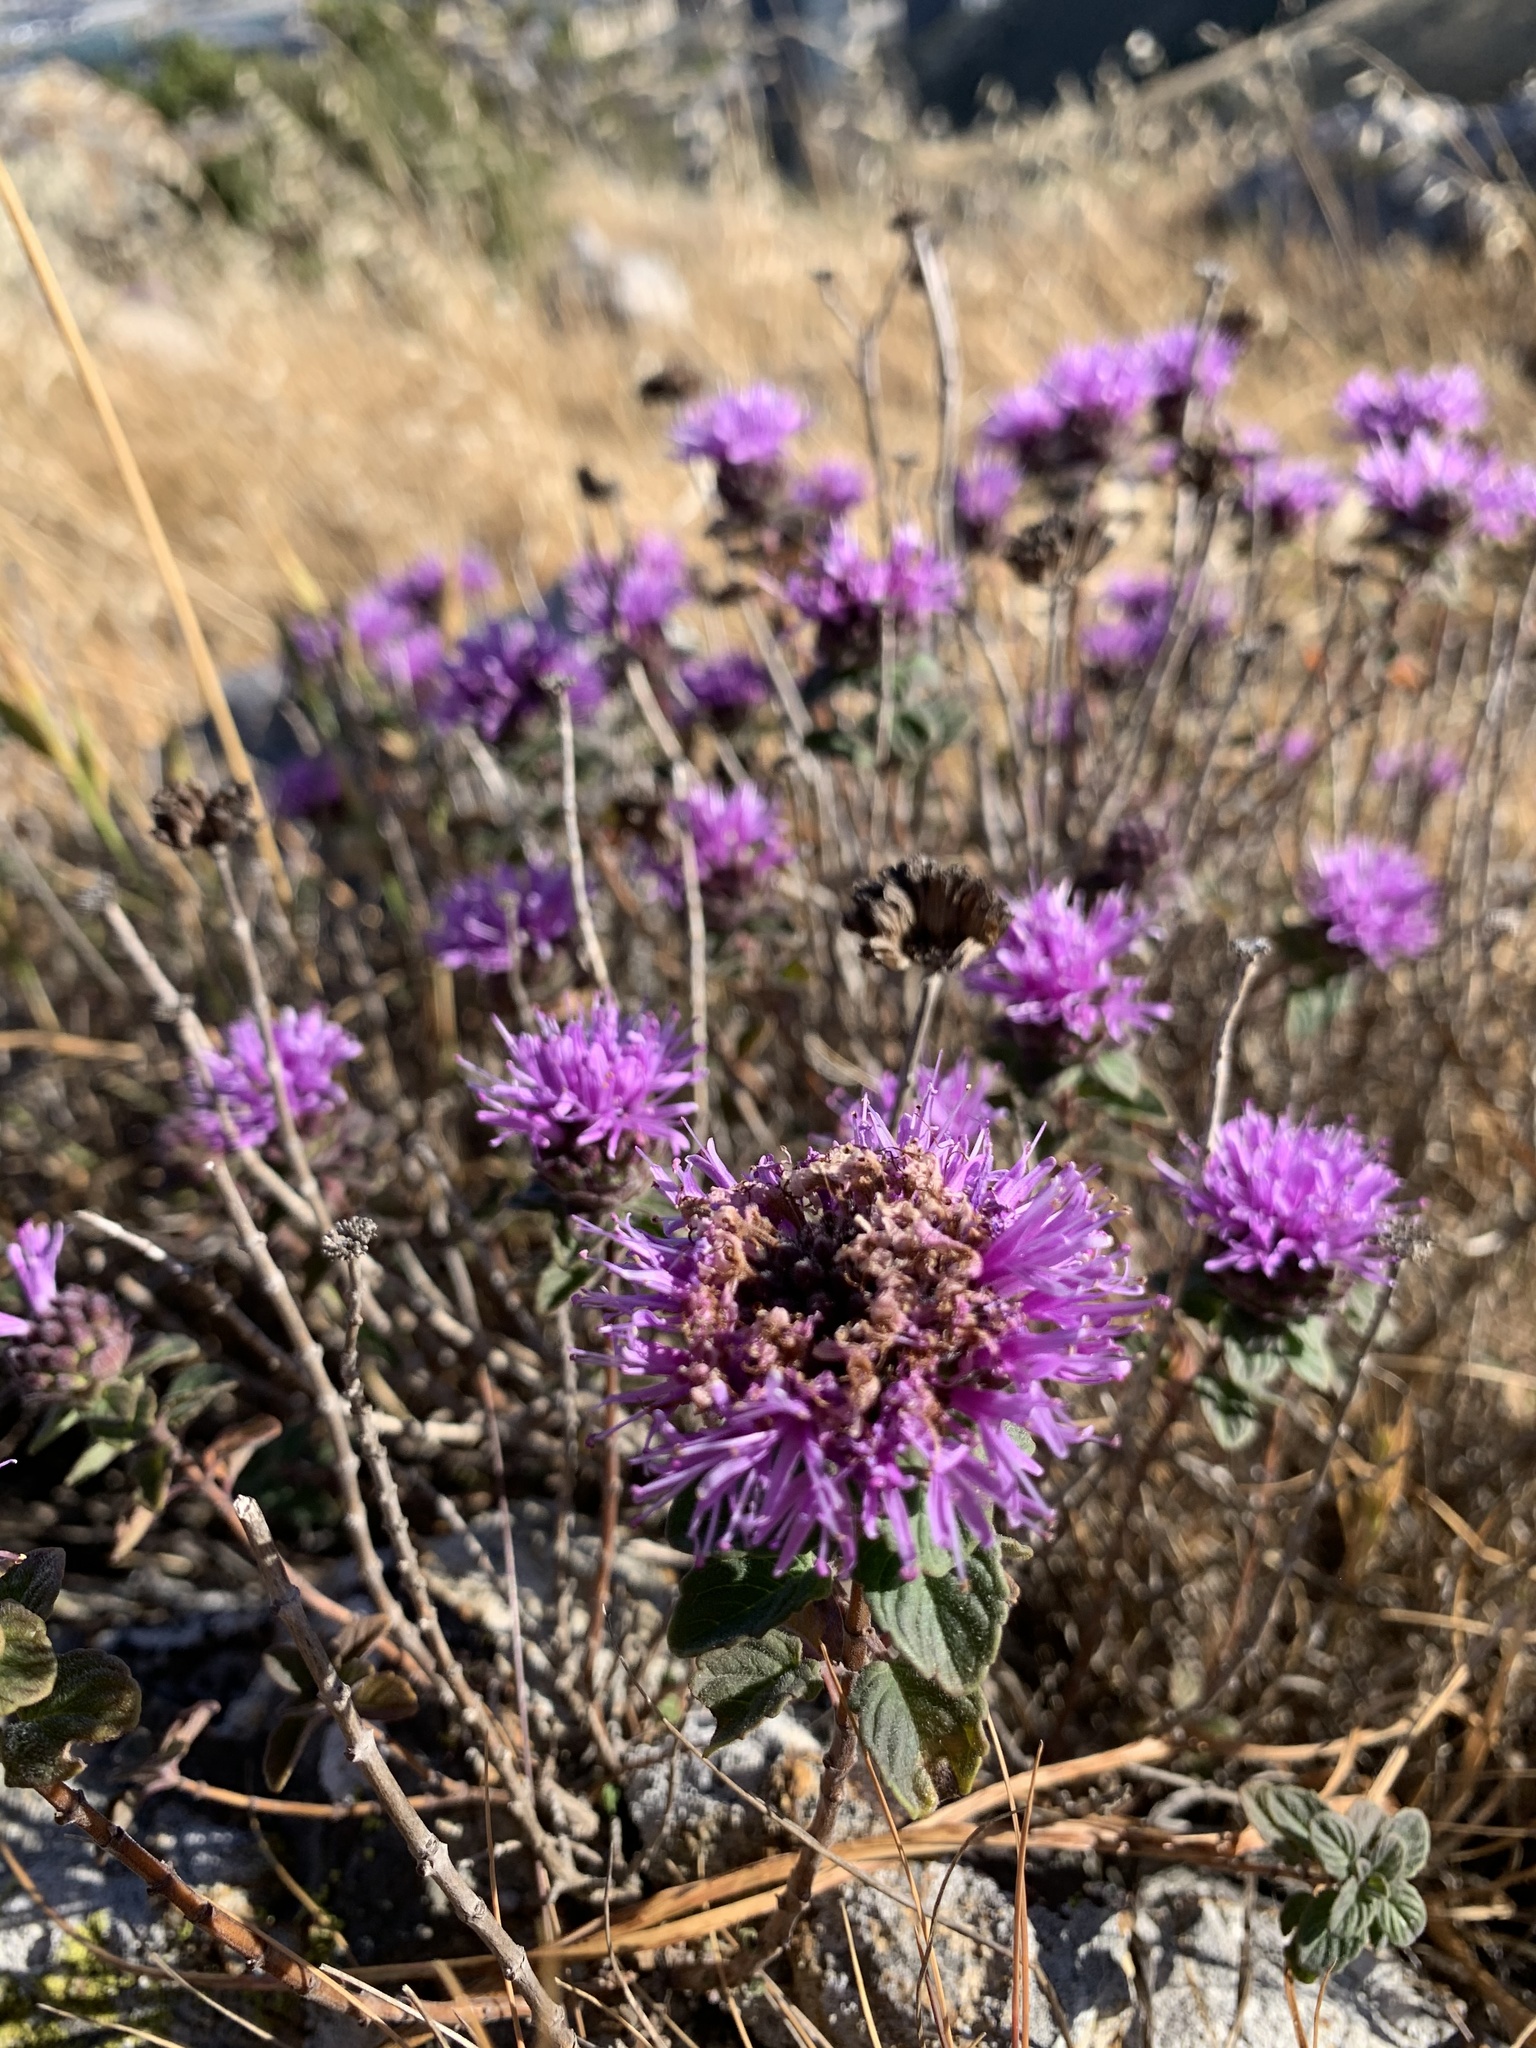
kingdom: Plantae
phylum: Tracheophyta
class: Magnoliopsida
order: Lamiales
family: Lamiaceae
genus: Monardella
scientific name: Monardella odoratissima
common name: Pacific monardella
